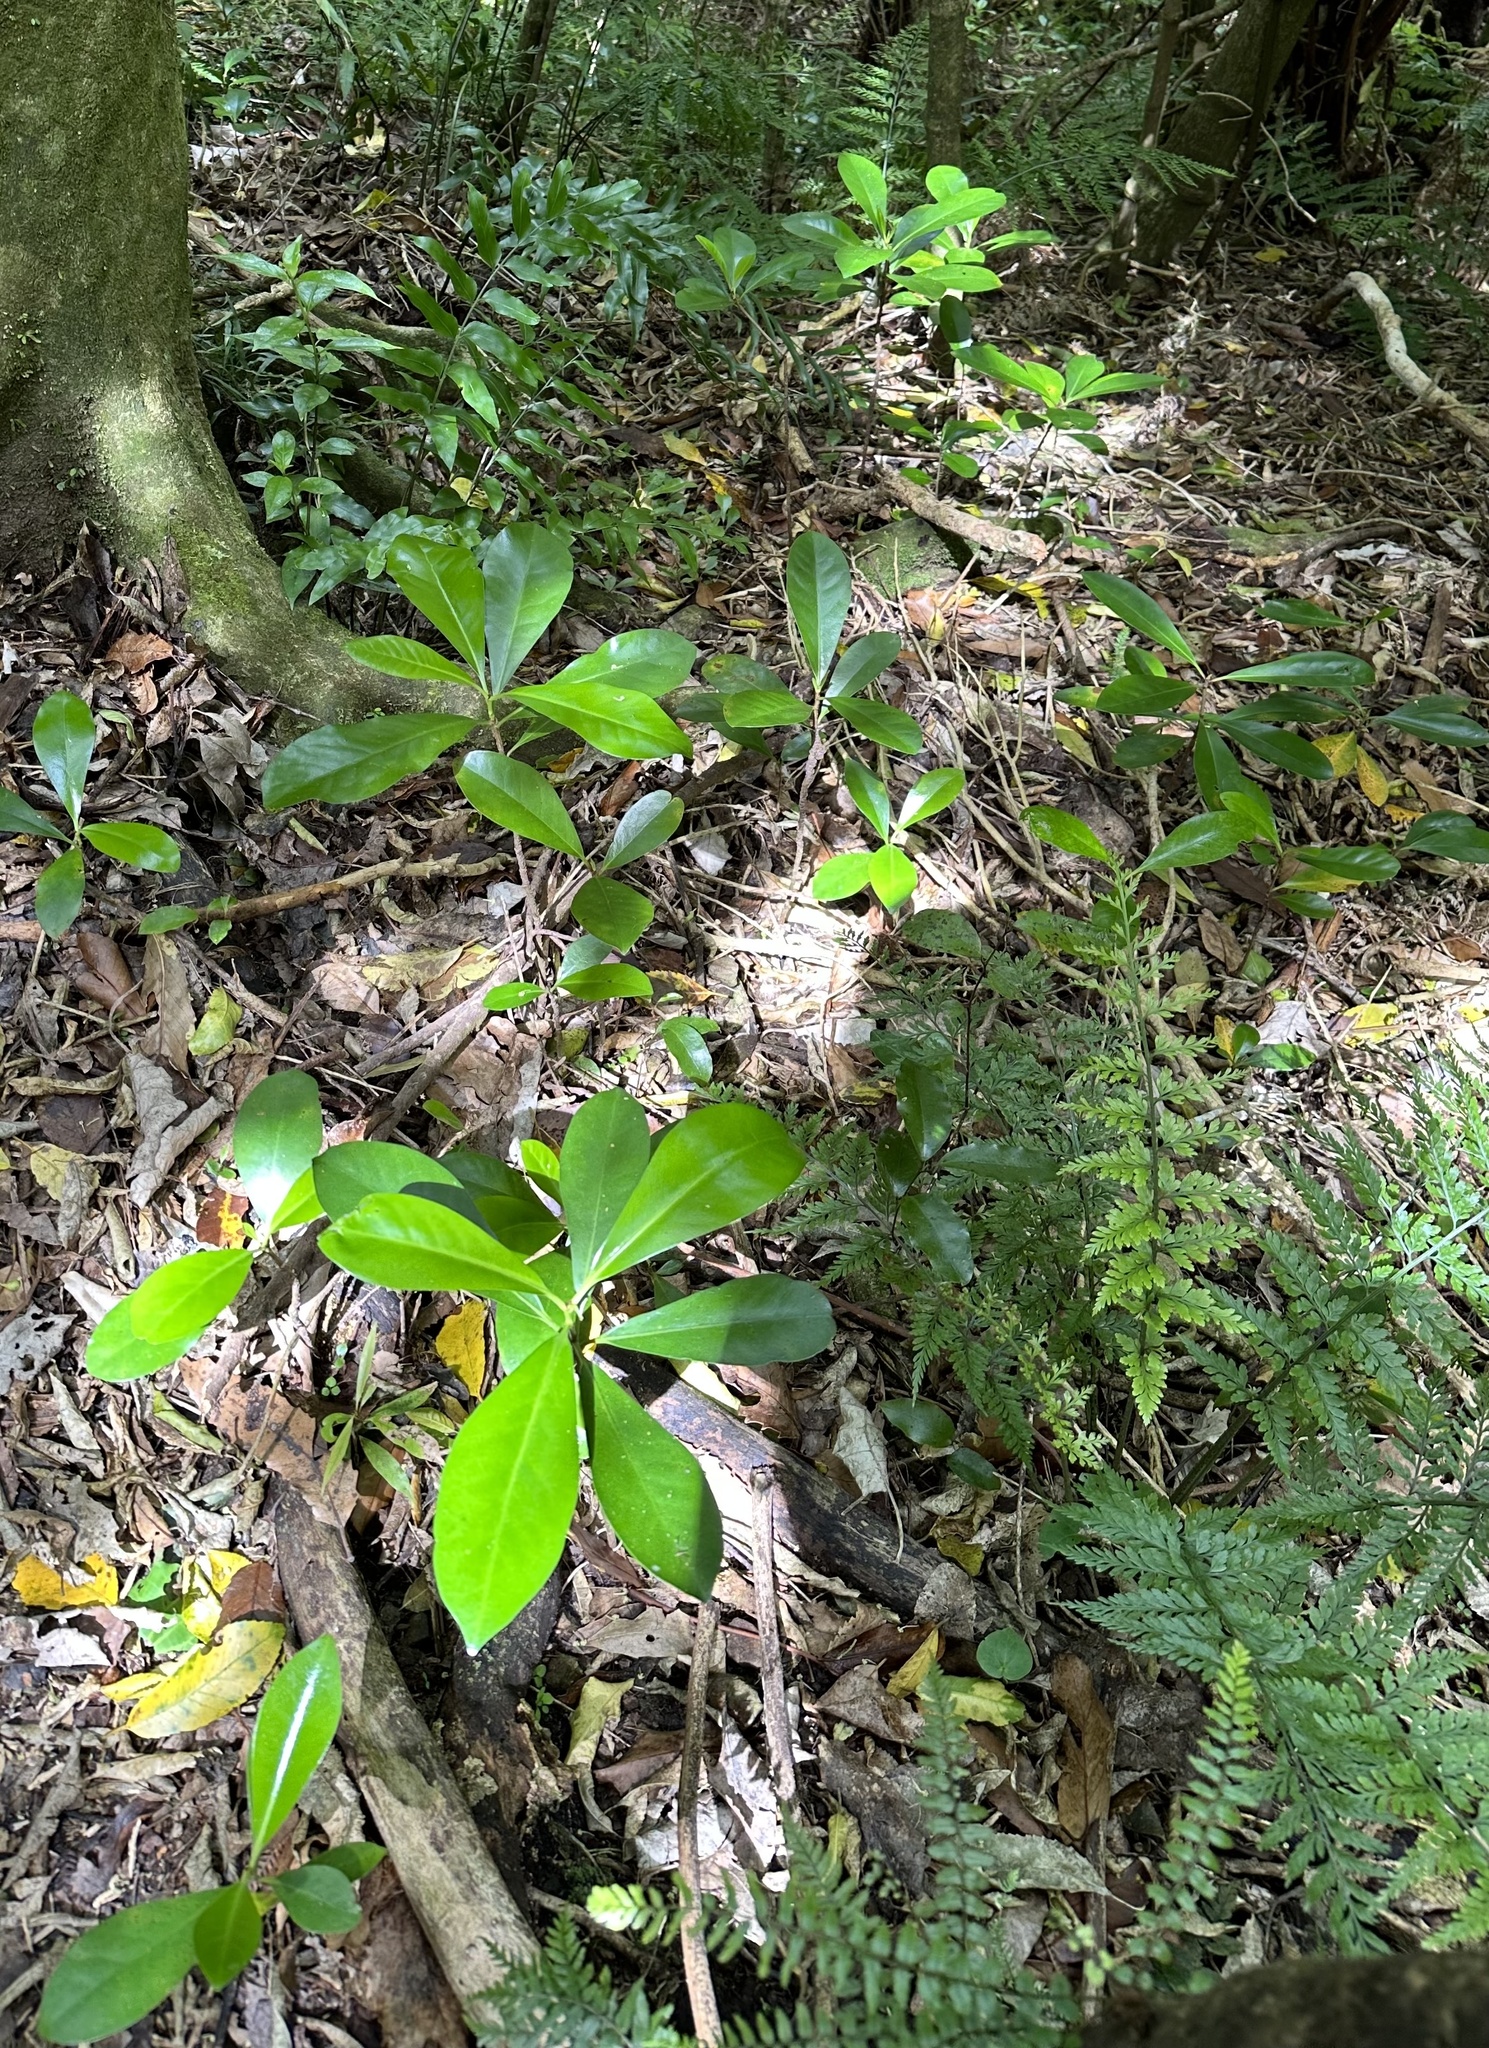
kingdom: Plantae
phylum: Tracheophyta
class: Magnoliopsida
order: Cucurbitales
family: Corynocarpaceae
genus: Corynocarpus
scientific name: Corynocarpus laevigatus
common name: New zealand laurel
